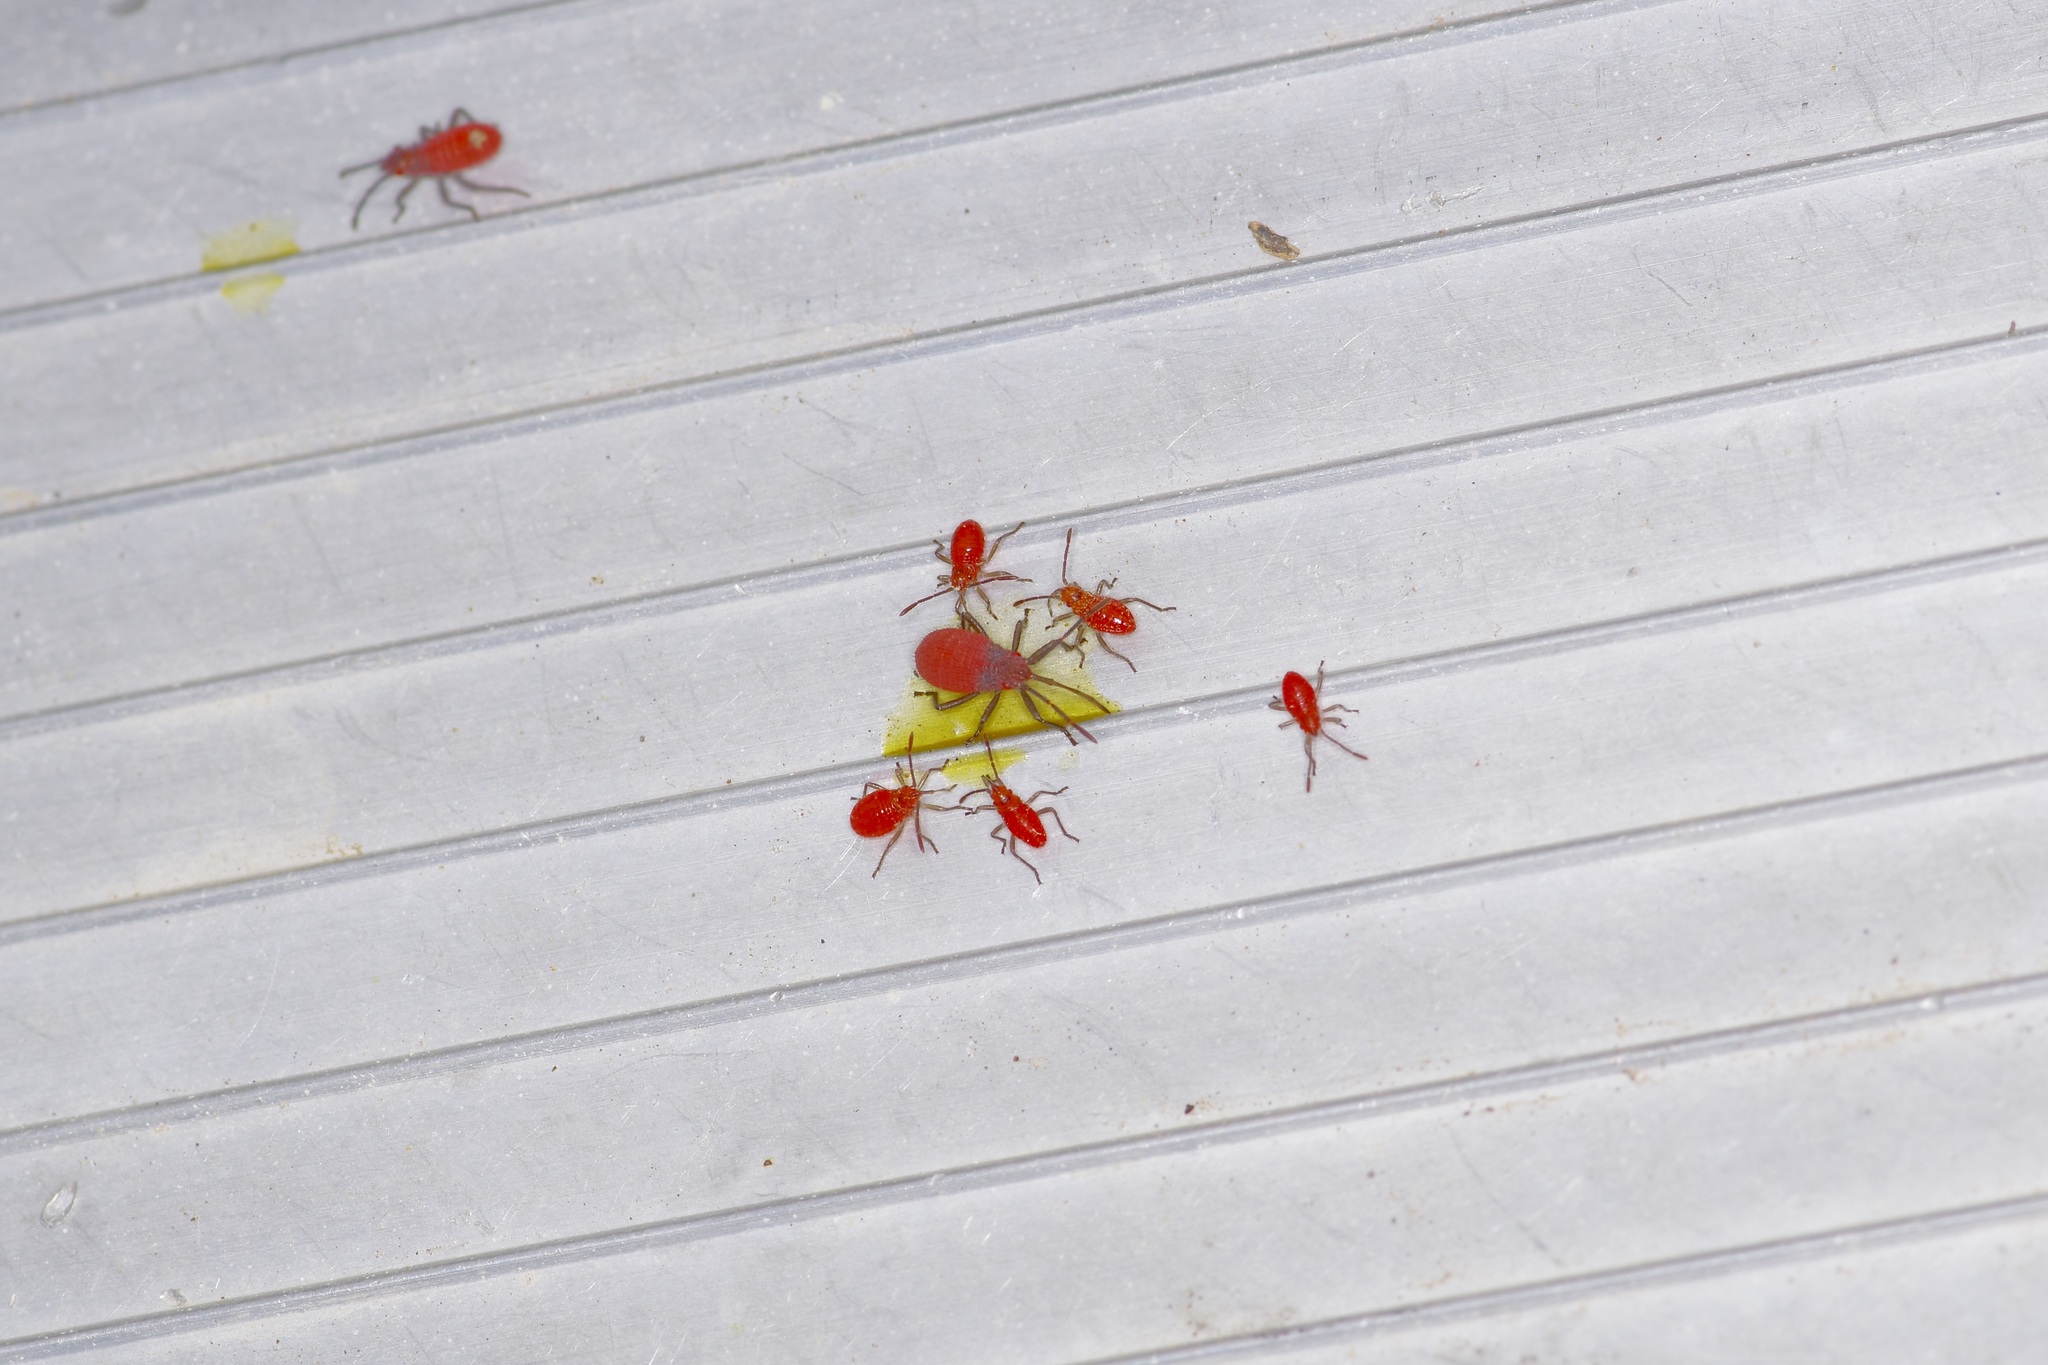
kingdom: Animalia
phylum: Arthropoda
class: Insecta
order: Hemiptera
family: Rhopalidae
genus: Jadera
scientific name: Jadera haematoloma
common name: Red-shouldered bug
